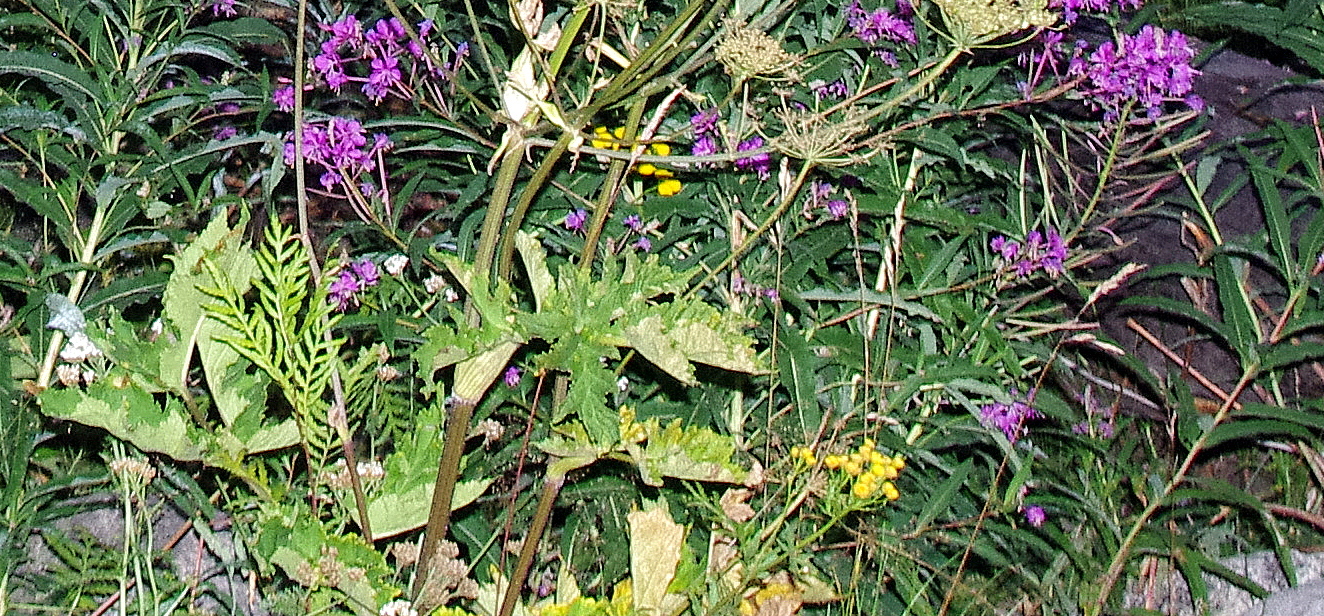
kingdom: Plantae
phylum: Tracheophyta
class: Magnoliopsida
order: Apiales
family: Apiaceae
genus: Heracleum
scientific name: Heracleum sphondylium
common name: Hogweed
